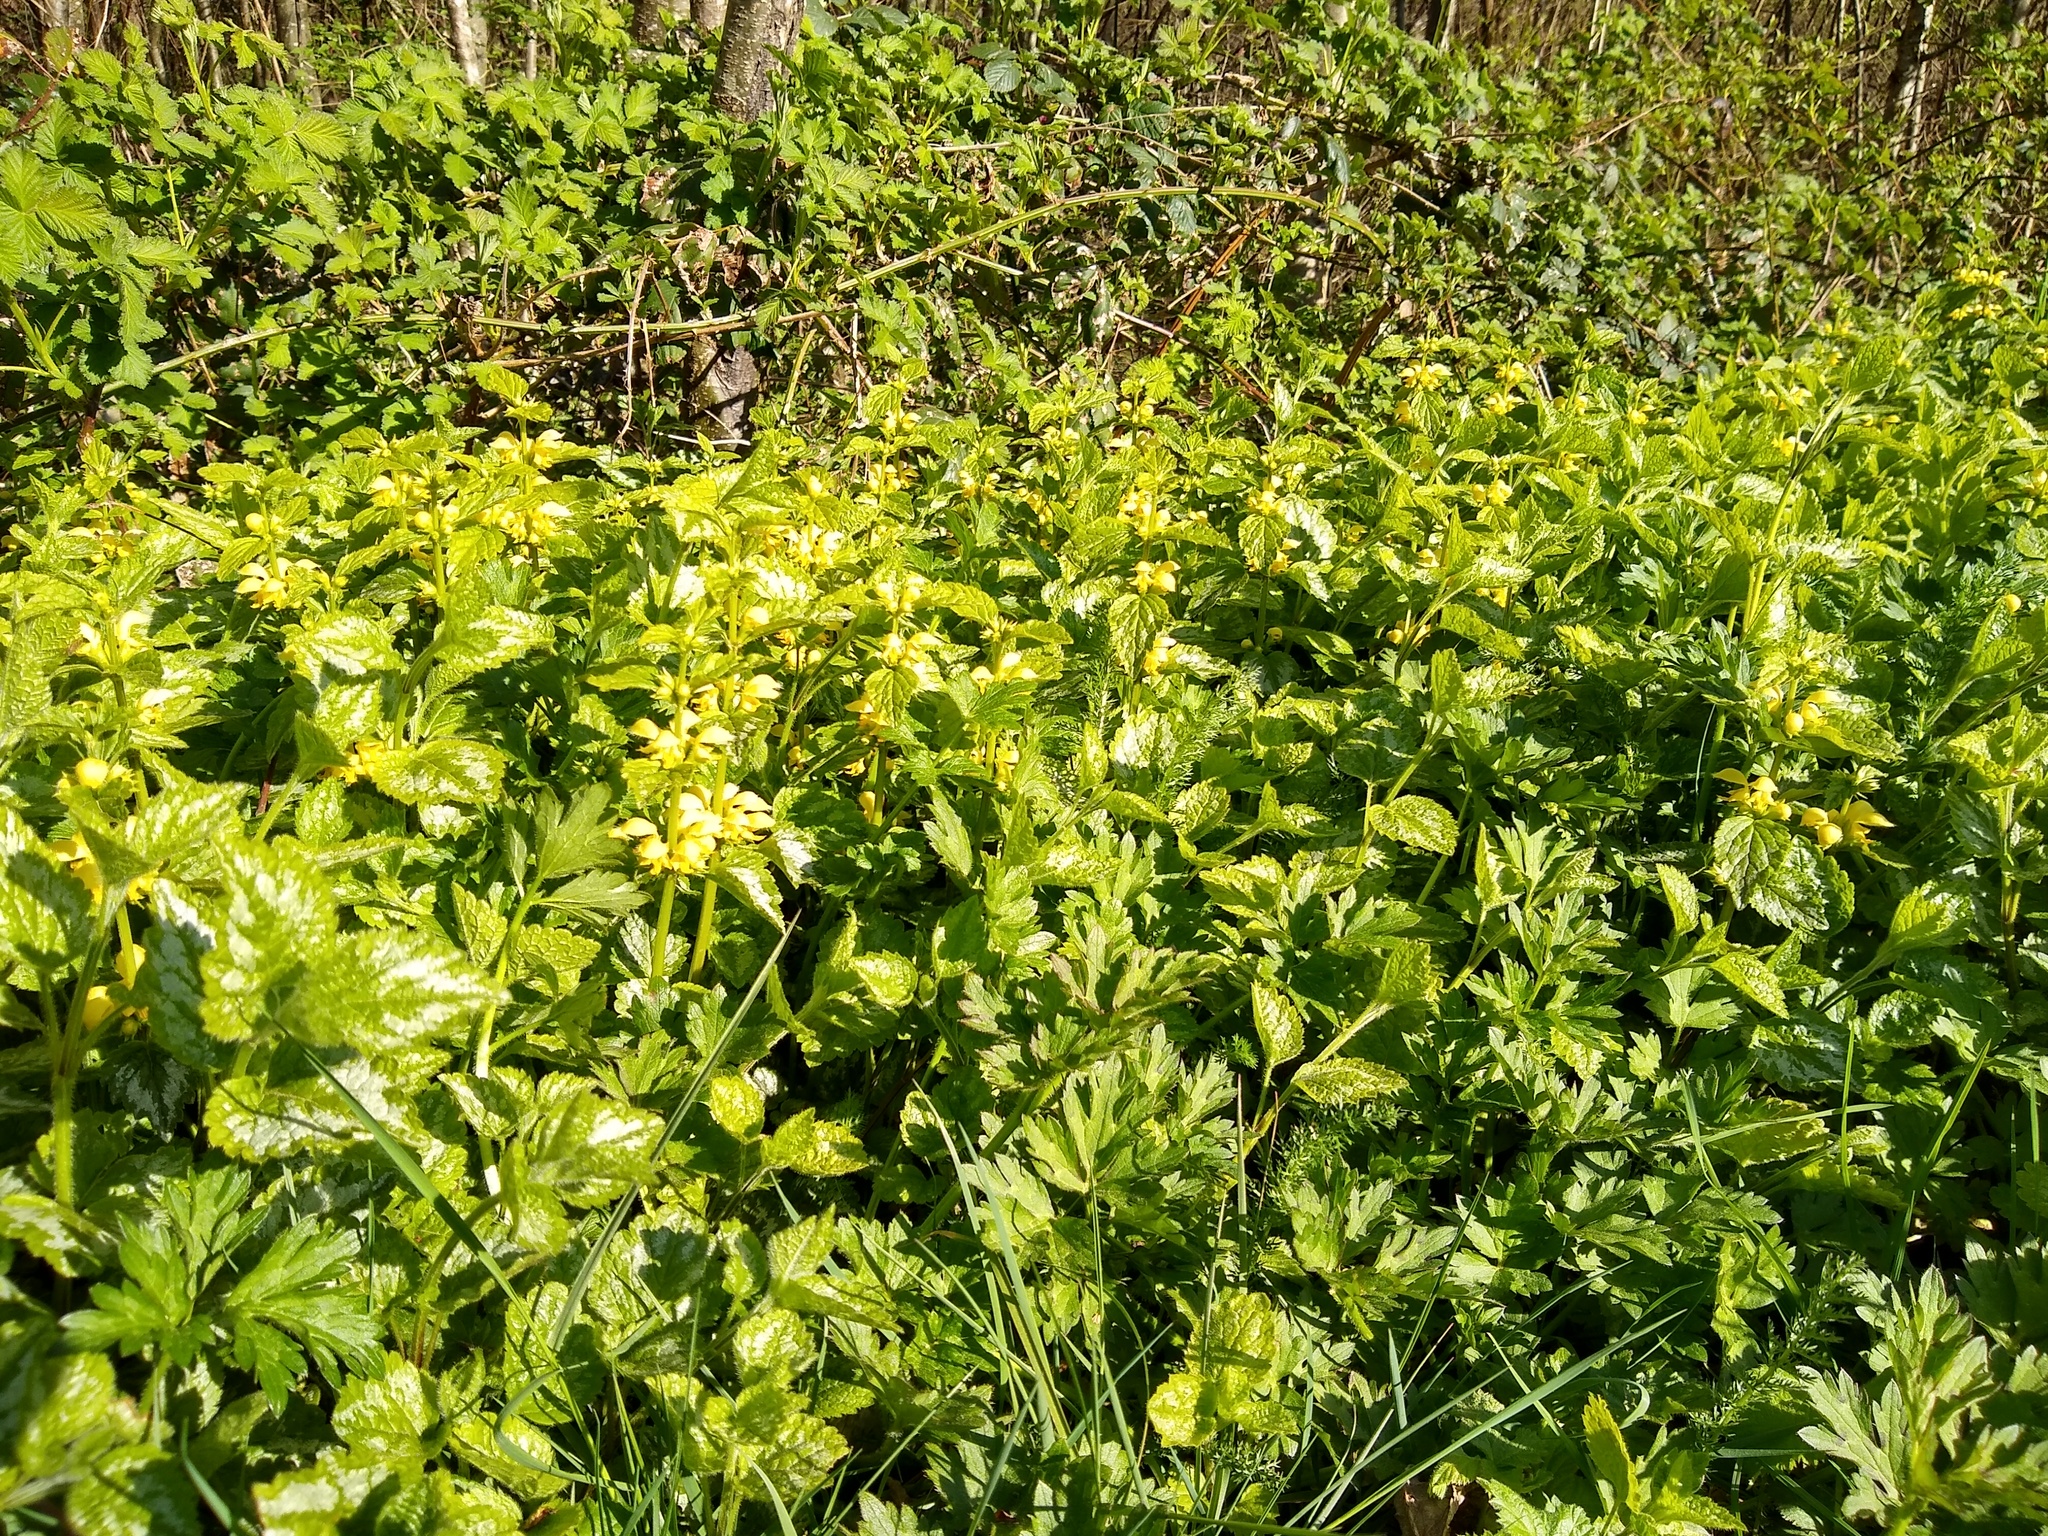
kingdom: Plantae
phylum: Tracheophyta
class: Magnoliopsida
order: Lamiales
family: Lamiaceae
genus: Lamium
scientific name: Lamium galeobdolon
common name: Yellow archangel
